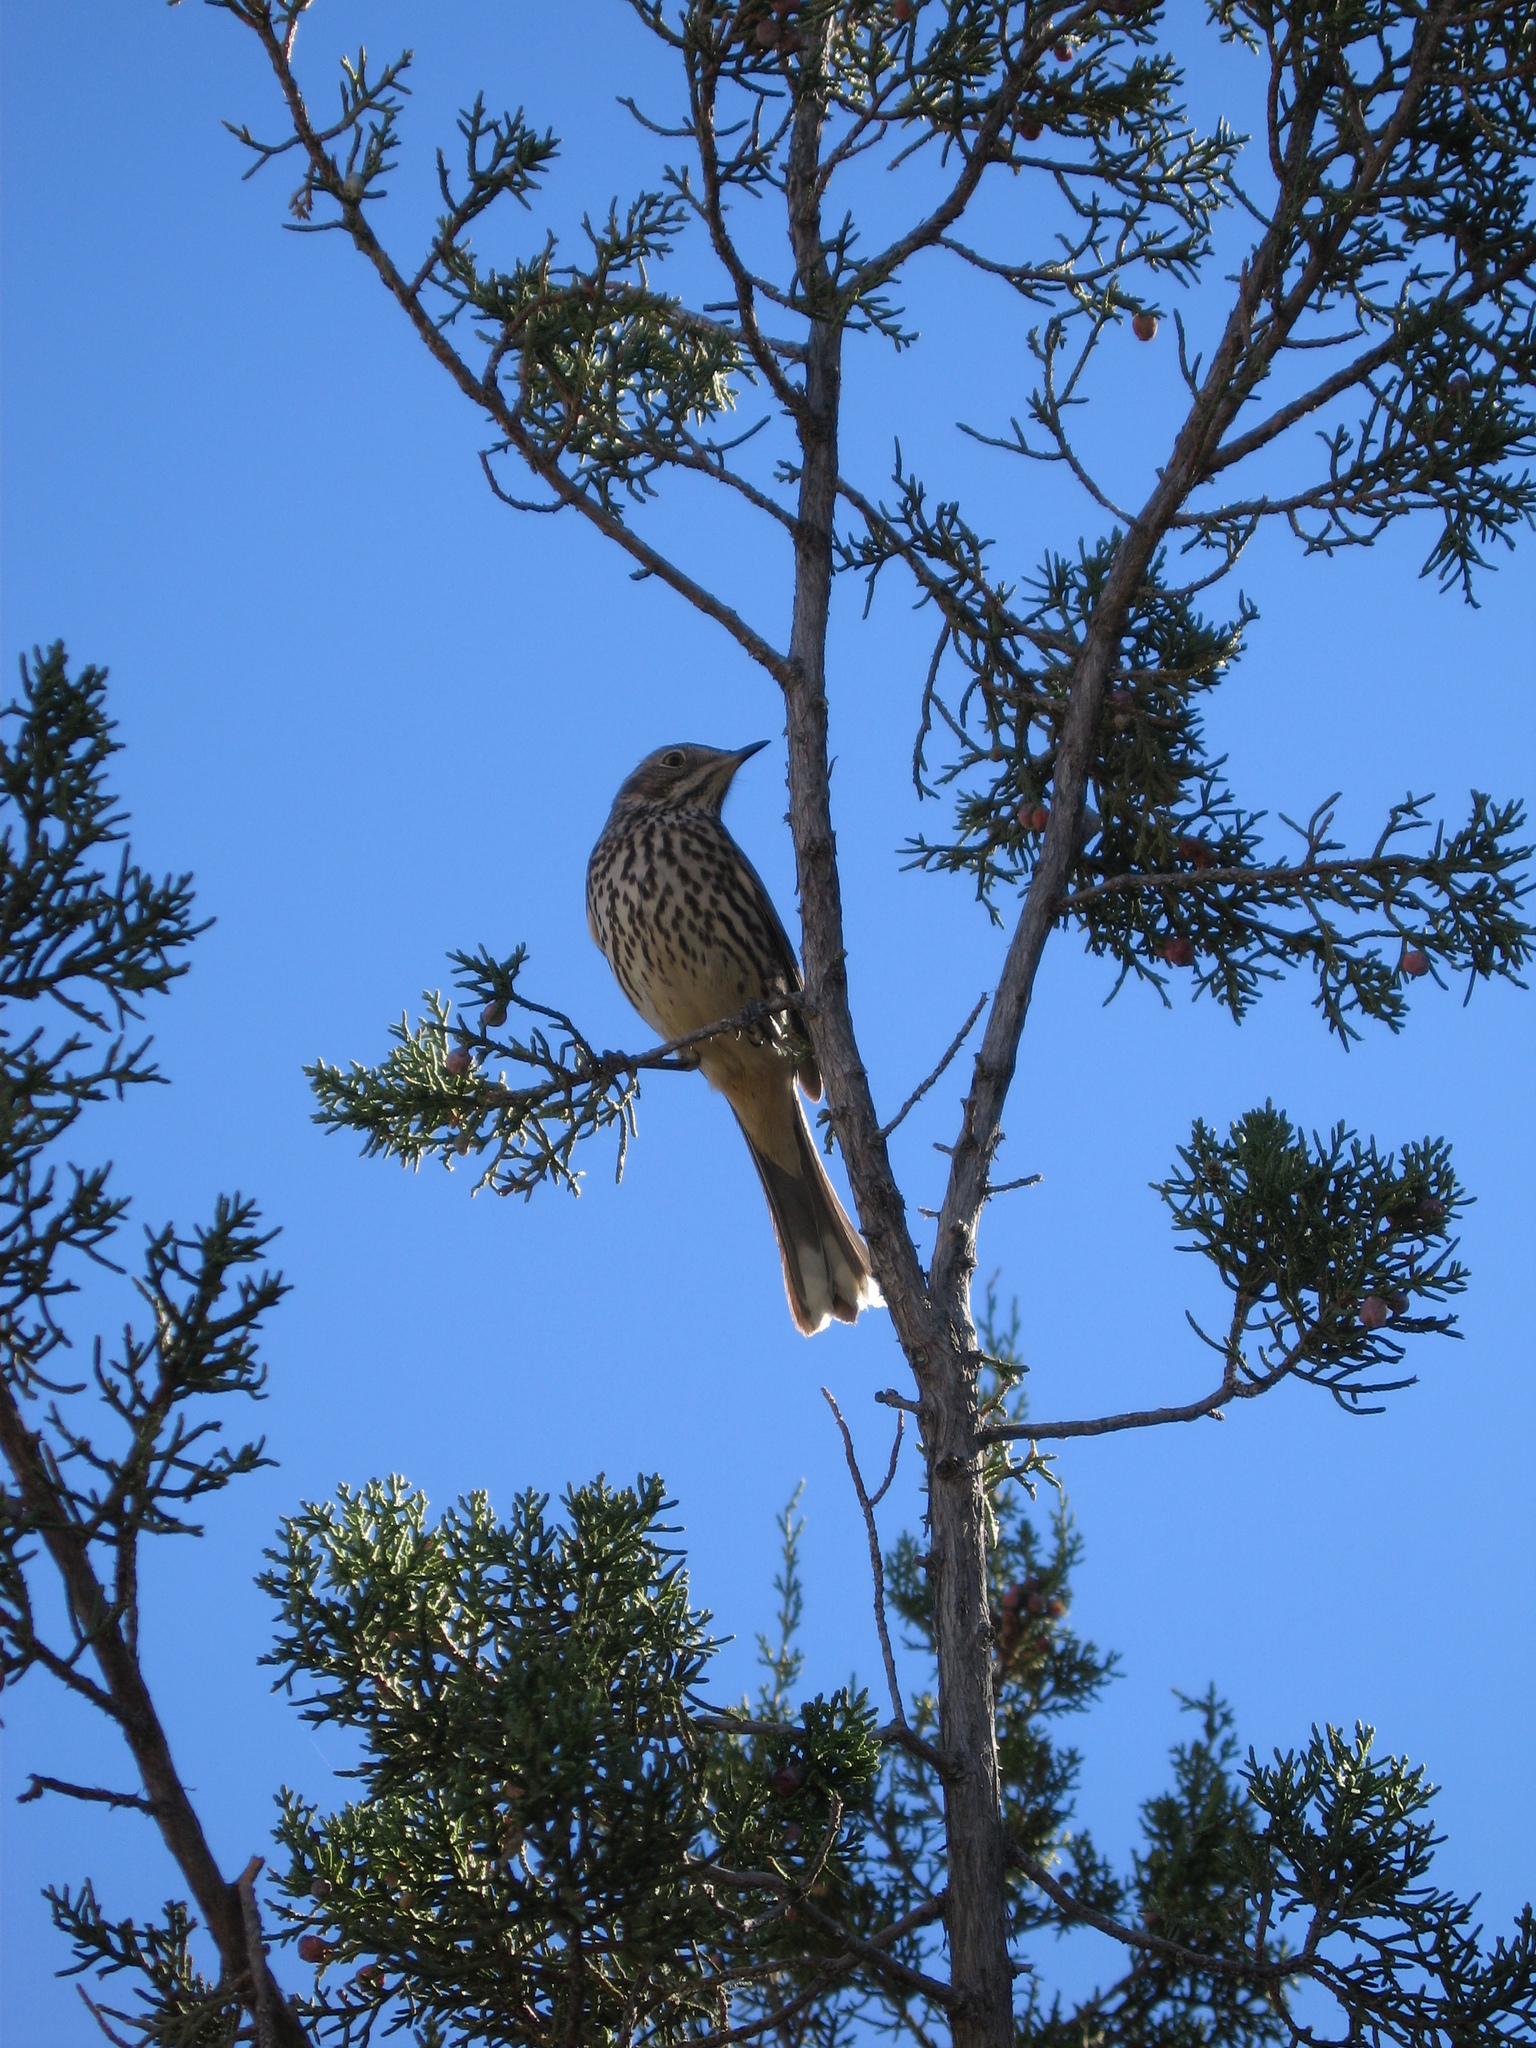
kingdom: Animalia
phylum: Chordata
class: Aves
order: Passeriformes
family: Mimidae
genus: Oreoscoptes
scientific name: Oreoscoptes montanus
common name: Sage thrasher
